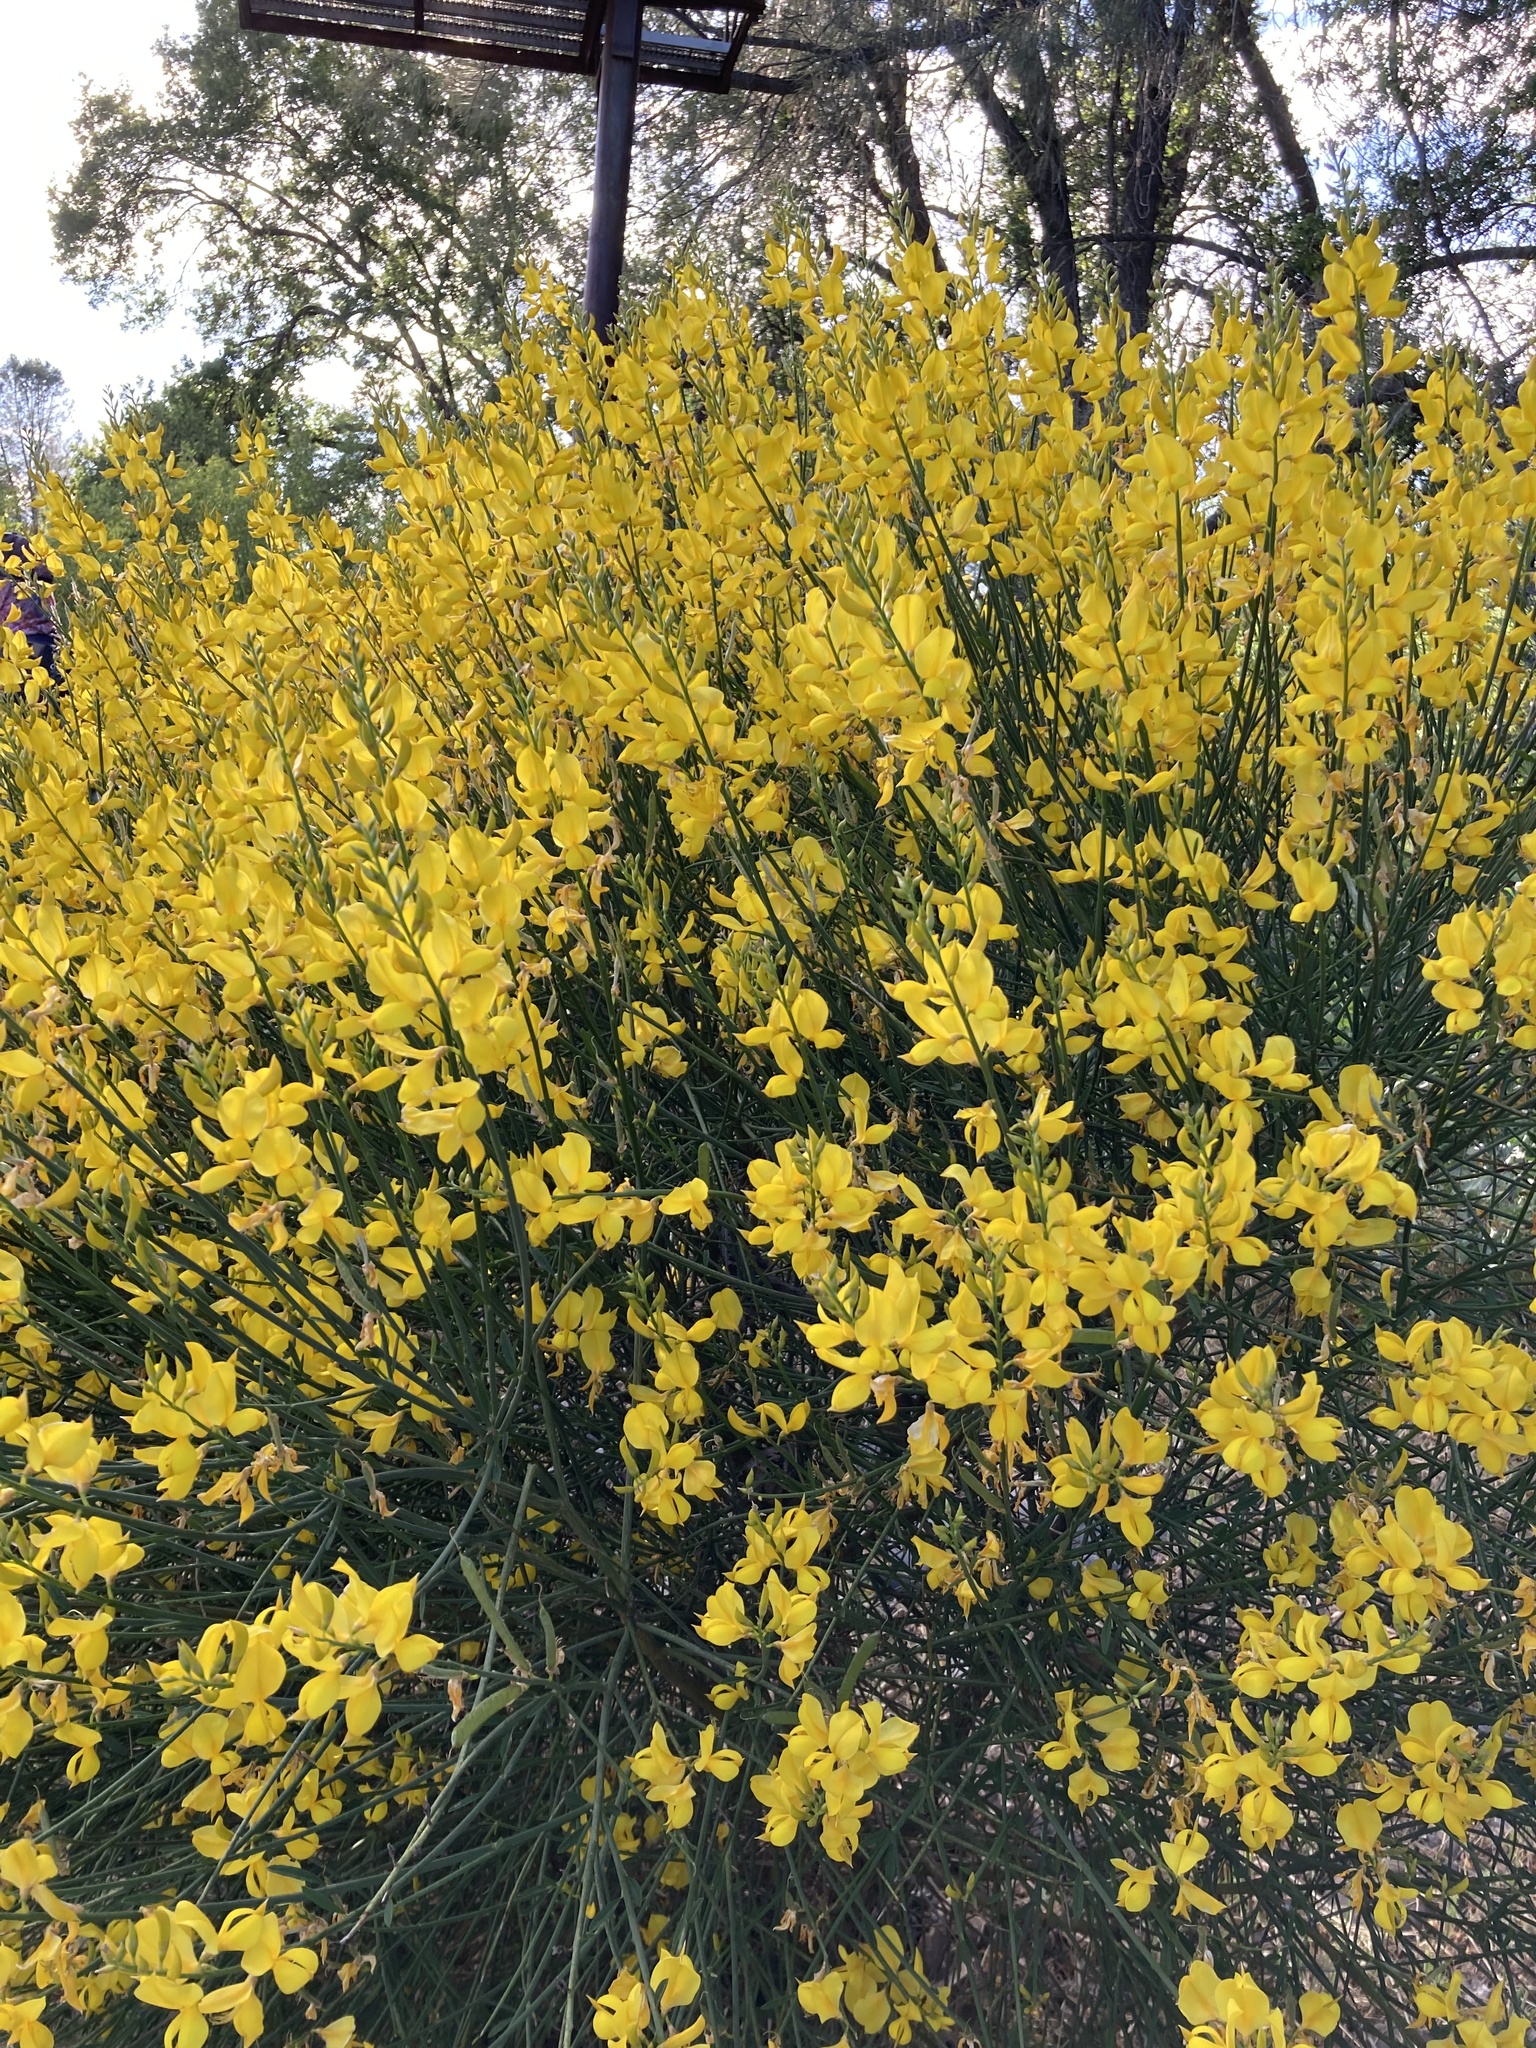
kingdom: Plantae
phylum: Tracheophyta
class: Magnoliopsida
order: Fabales
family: Fabaceae
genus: Spartium
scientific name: Spartium junceum
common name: Spanish broom
